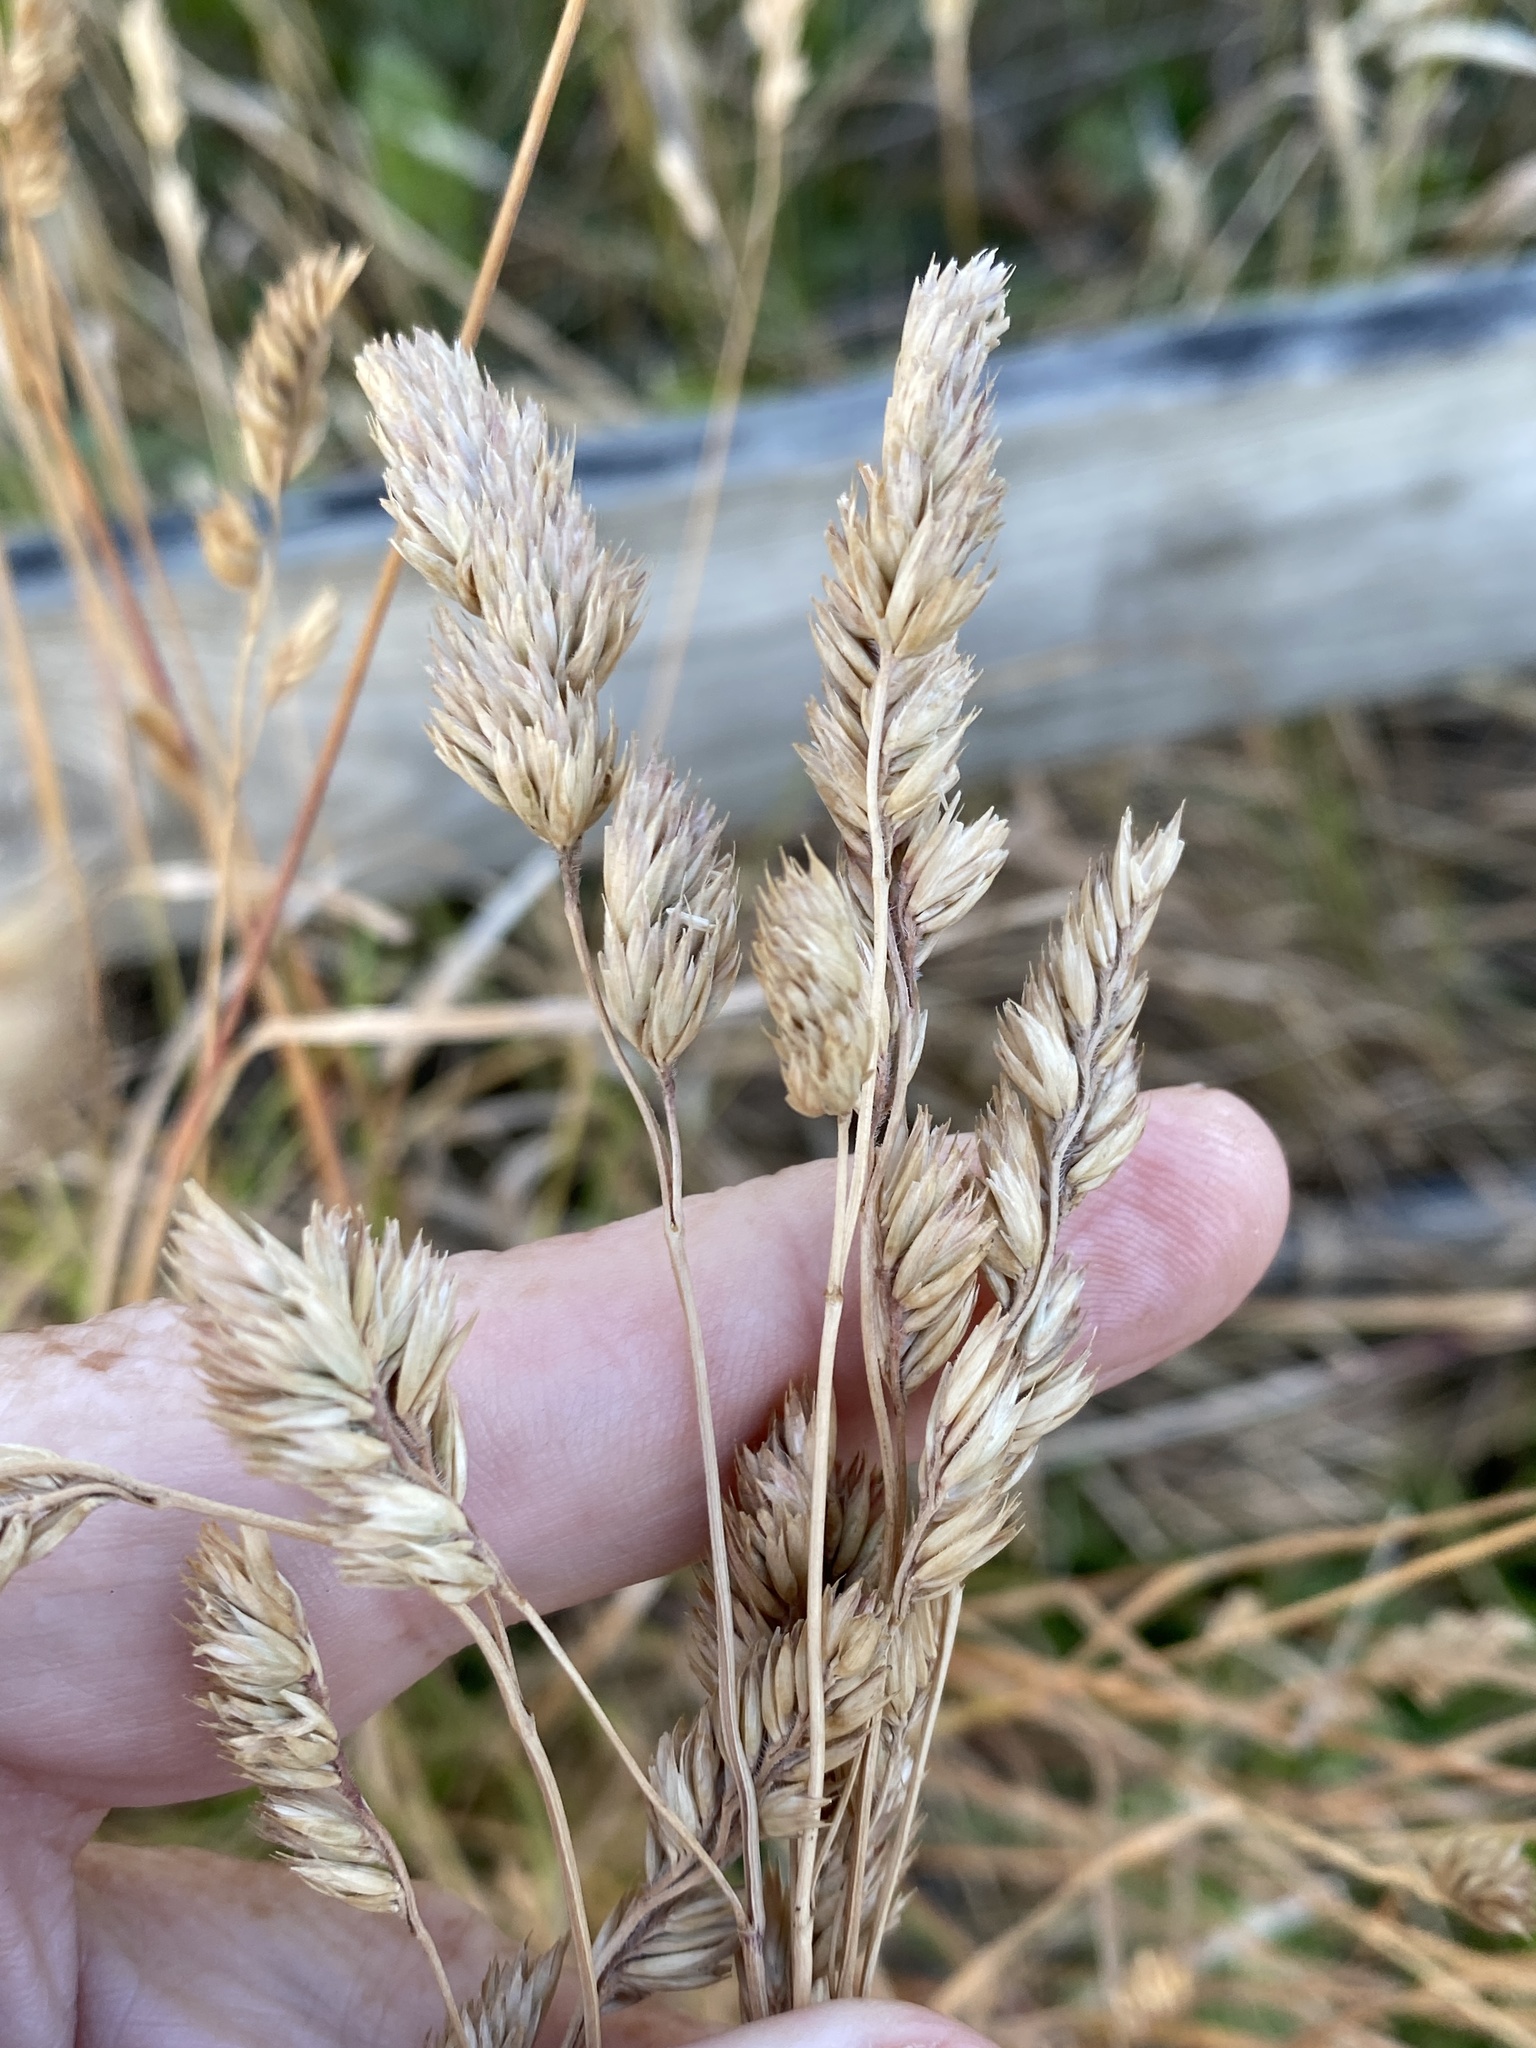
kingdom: Plantae
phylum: Tracheophyta
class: Liliopsida
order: Poales
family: Poaceae
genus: Dactylis
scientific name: Dactylis glomerata
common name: Orchardgrass
